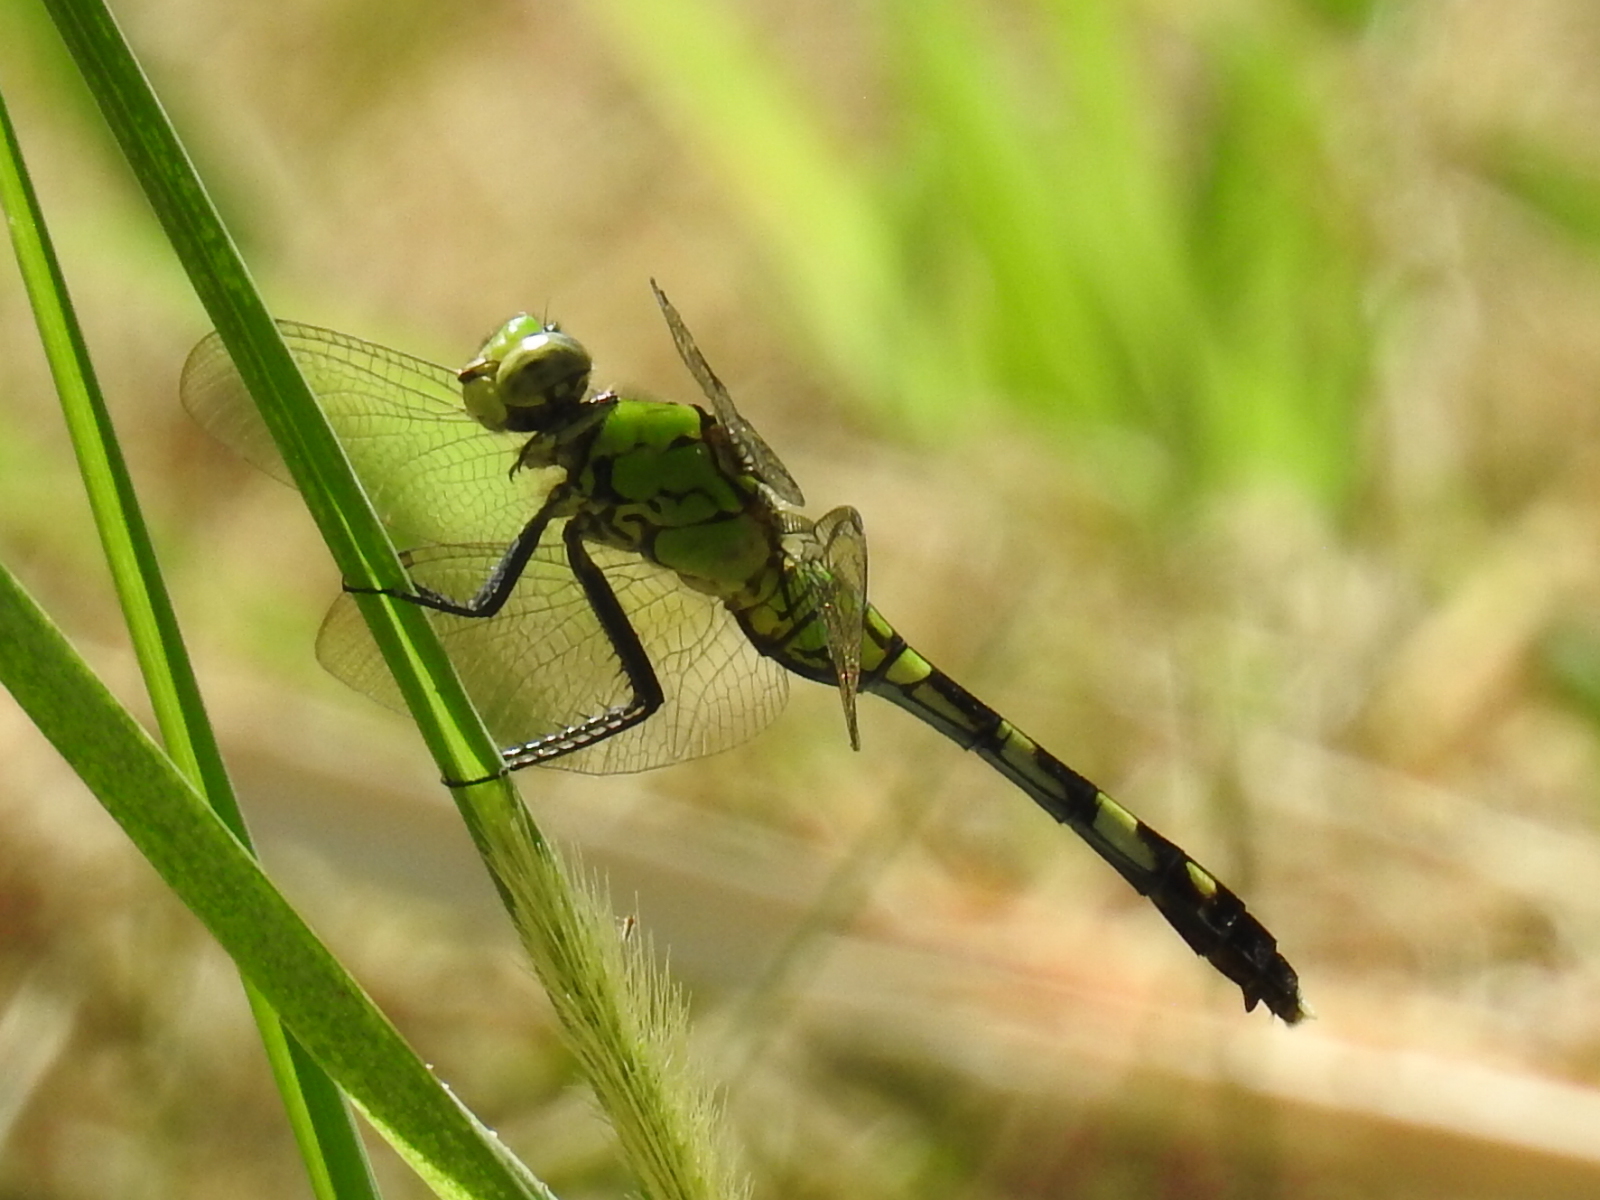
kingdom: Animalia
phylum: Arthropoda
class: Insecta
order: Odonata
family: Libellulidae
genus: Erythemis
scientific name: Erythemis simplicicollis
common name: Eastern pondhawk
